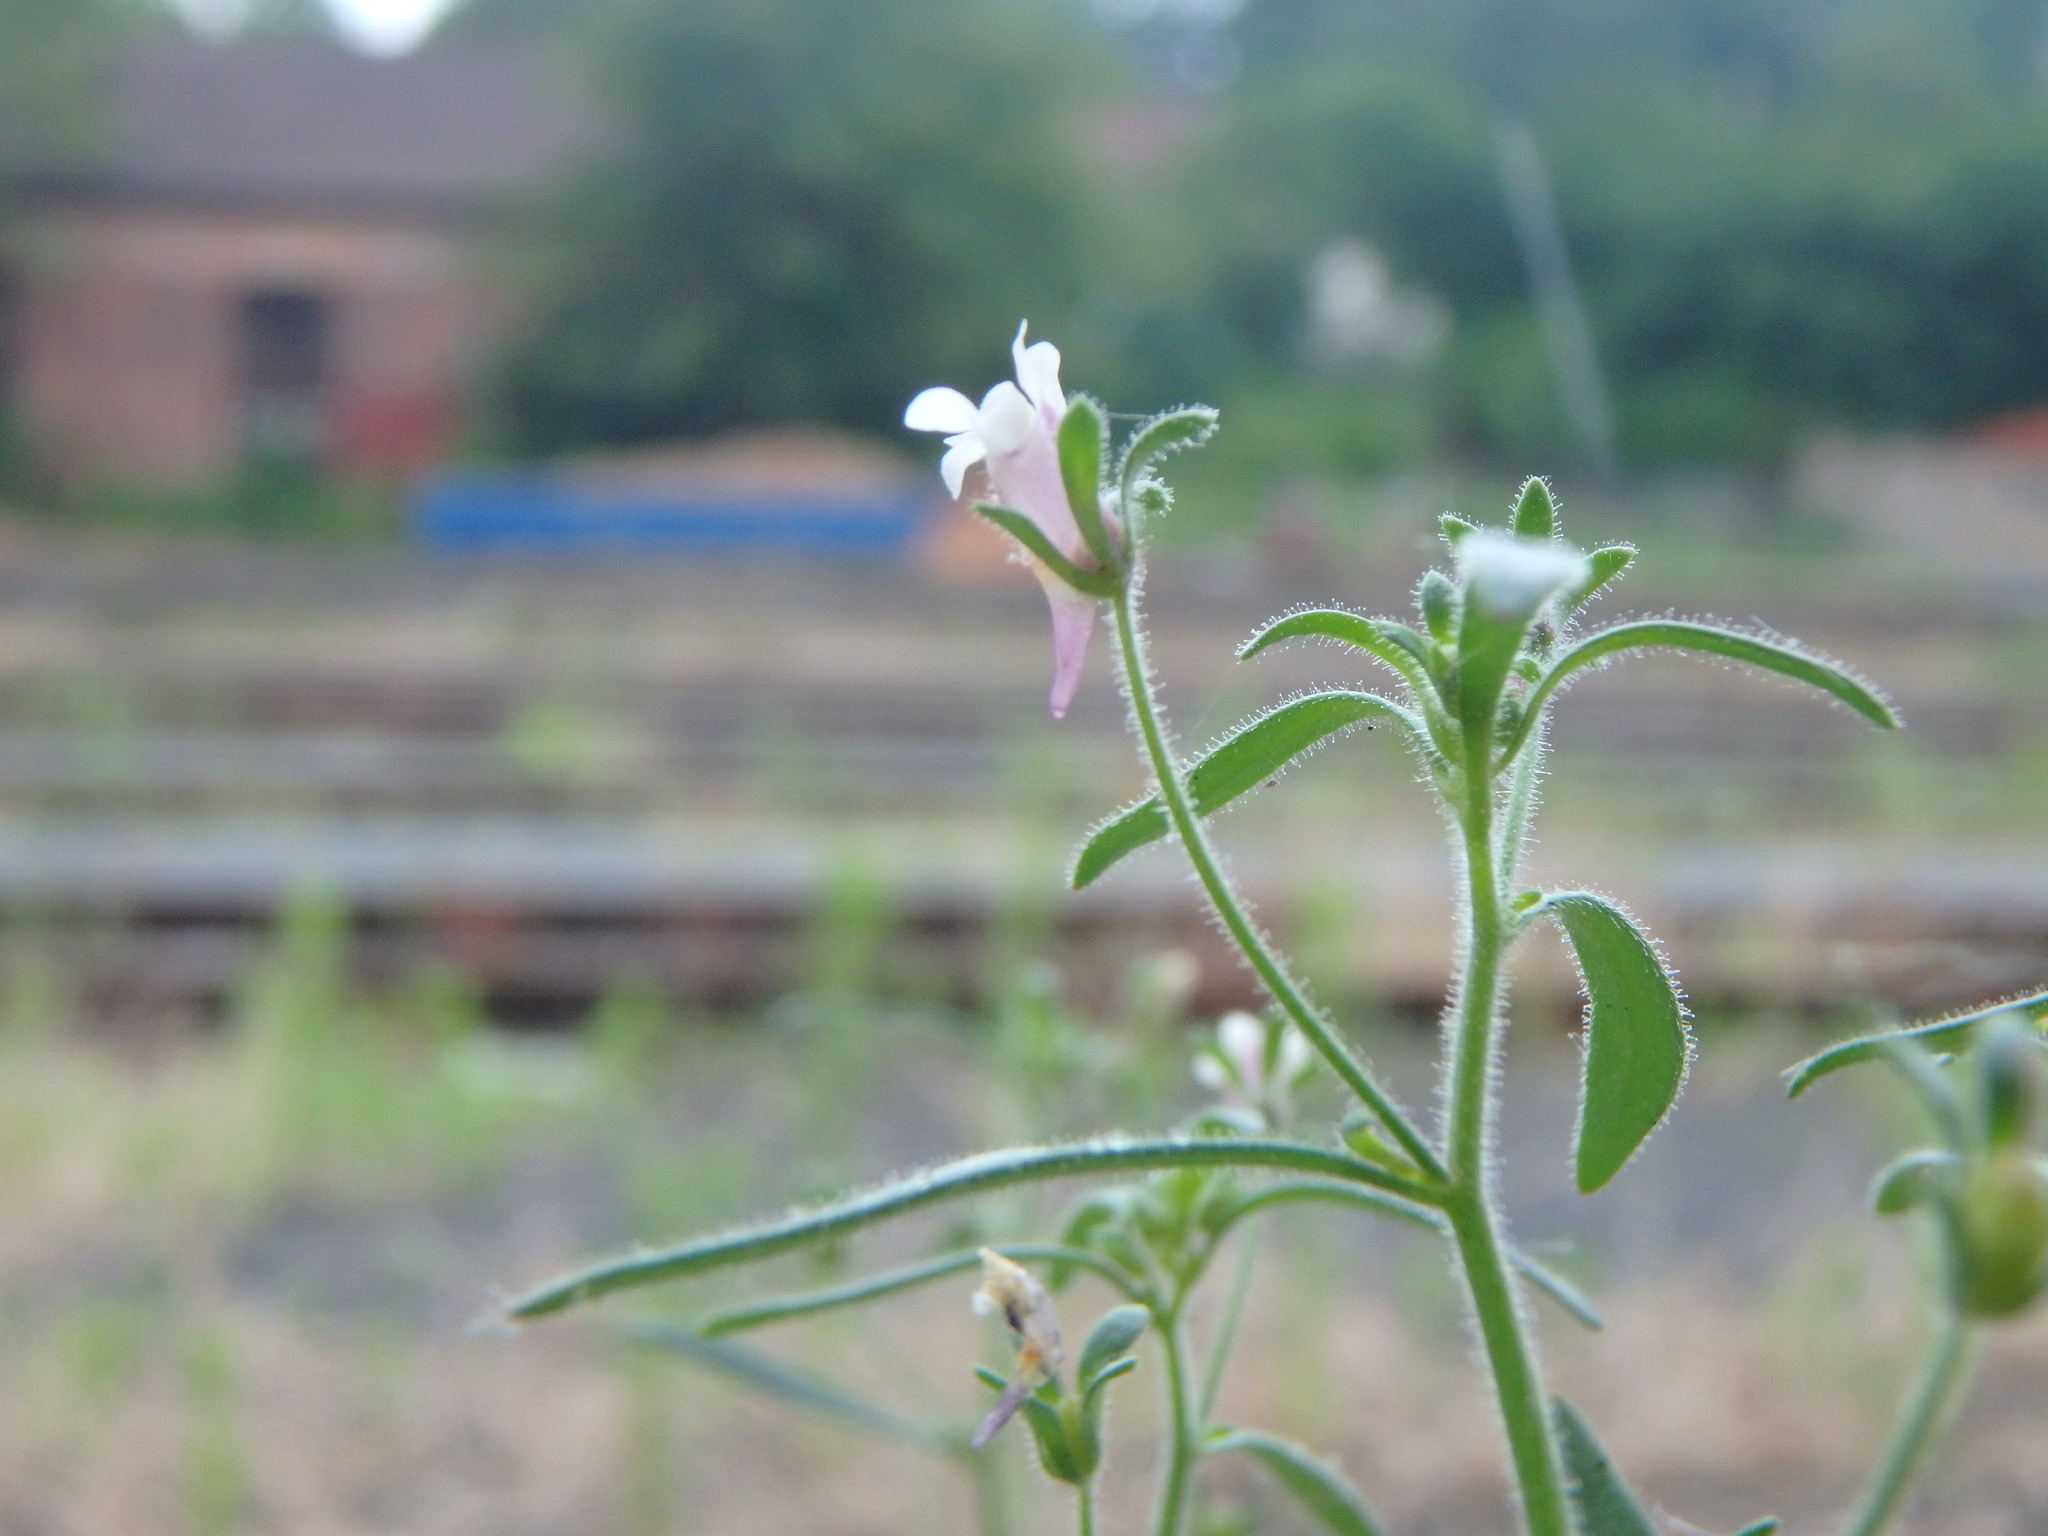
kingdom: Plantae
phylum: Tracheophyta
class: Magnoliopsida
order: Lamiales
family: Plantaginaceae
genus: Chaenorhinum
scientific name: Chaenorhinum minus
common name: Dwarf snapdragon
